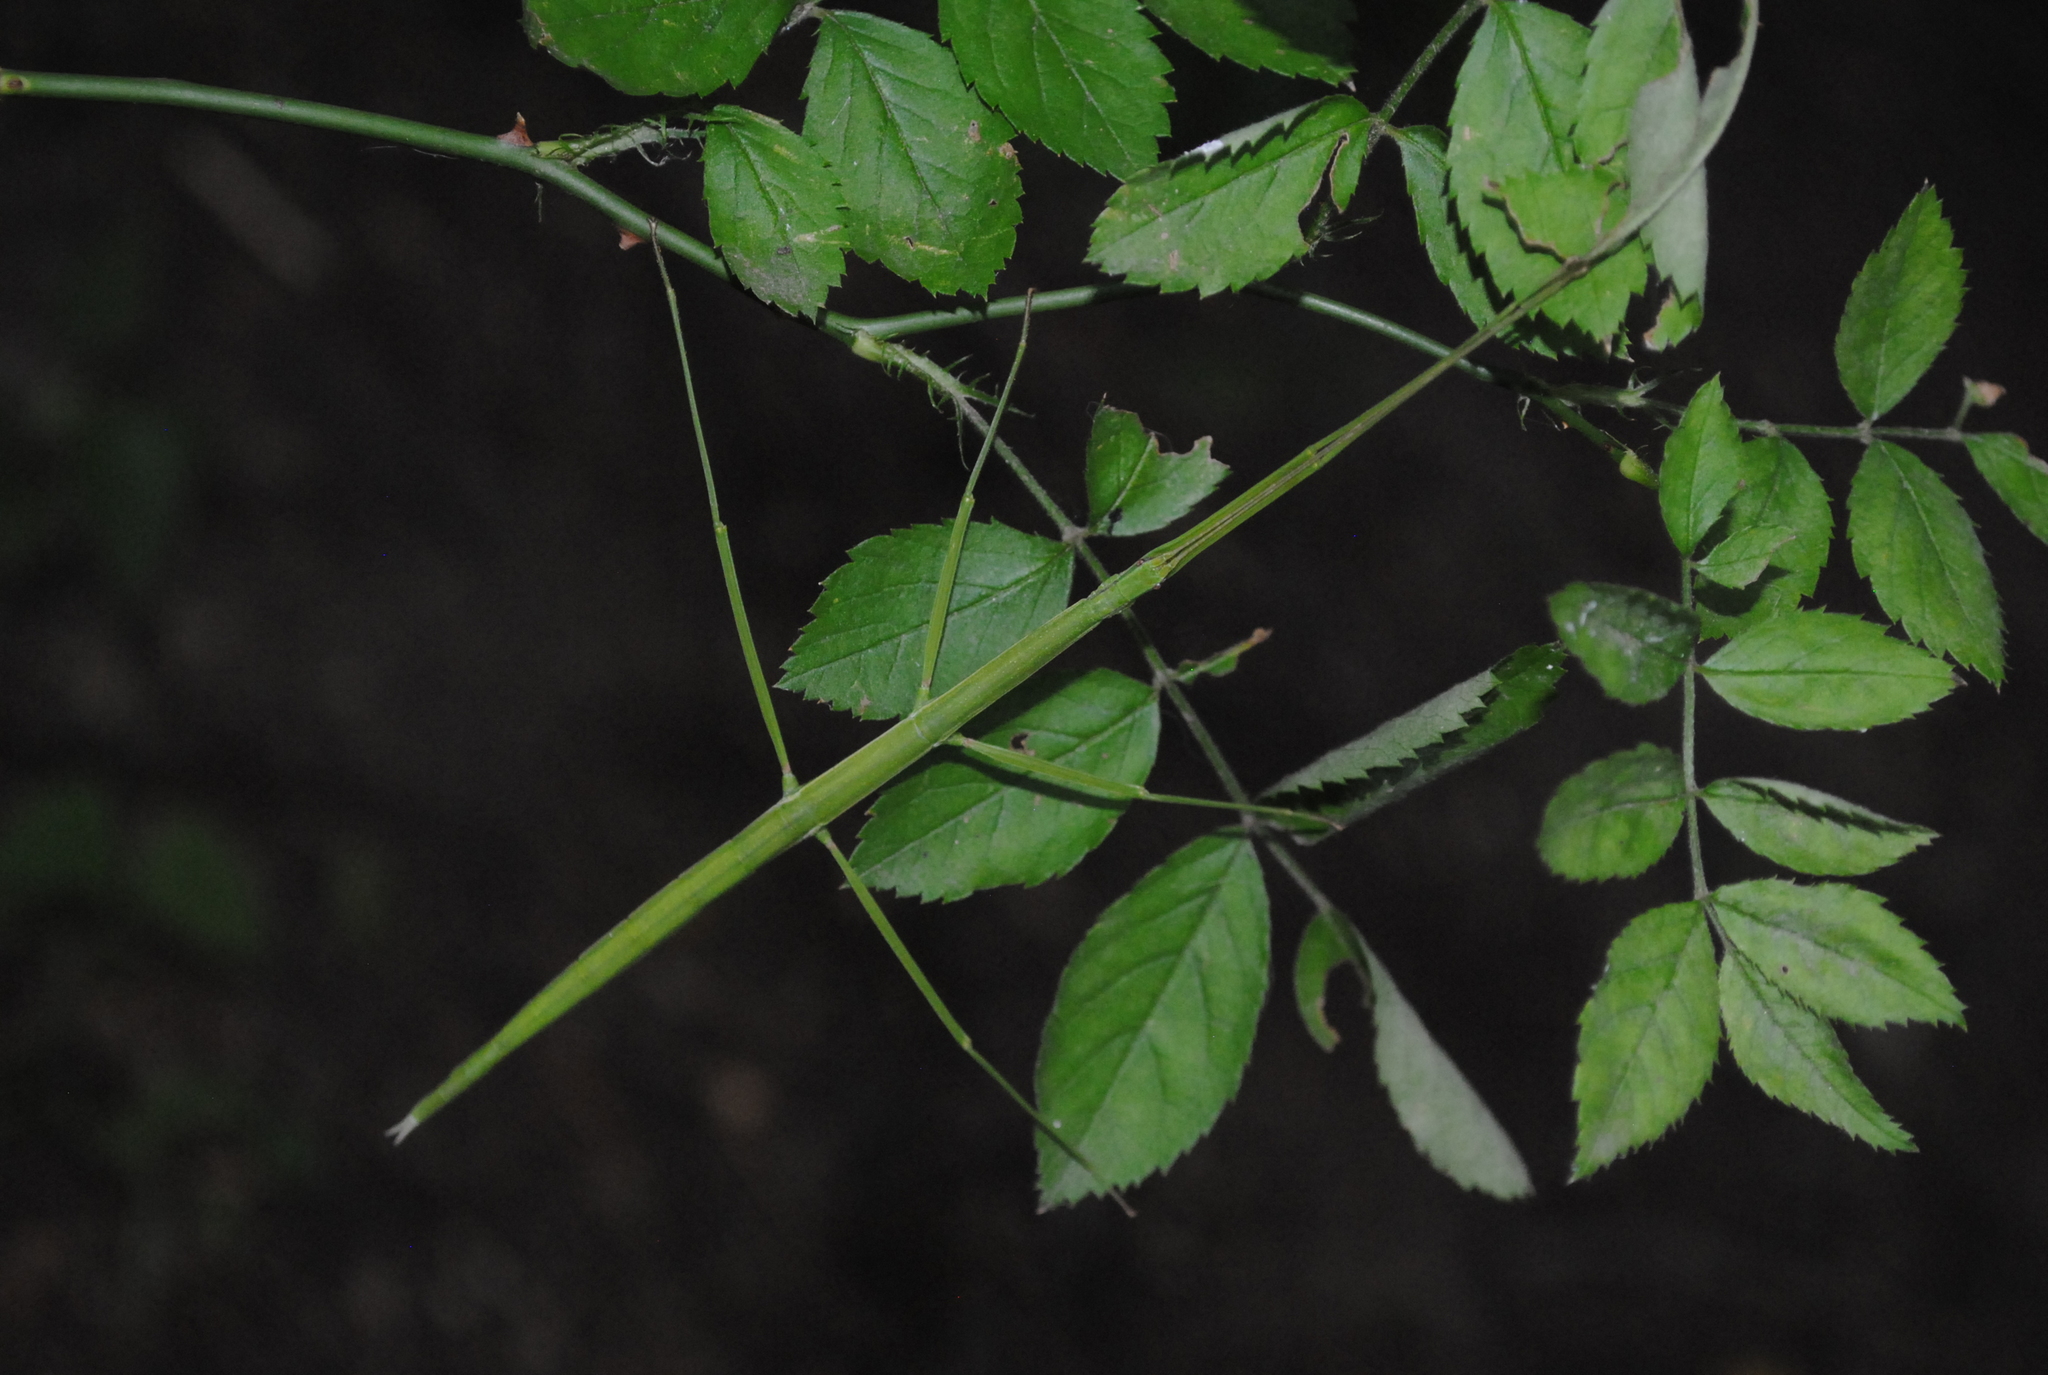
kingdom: Animalia
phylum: Arthropoda
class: Insecta
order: Phasmida
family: Diapheromeridae
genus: Manomera
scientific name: Manomera blatchleyi
